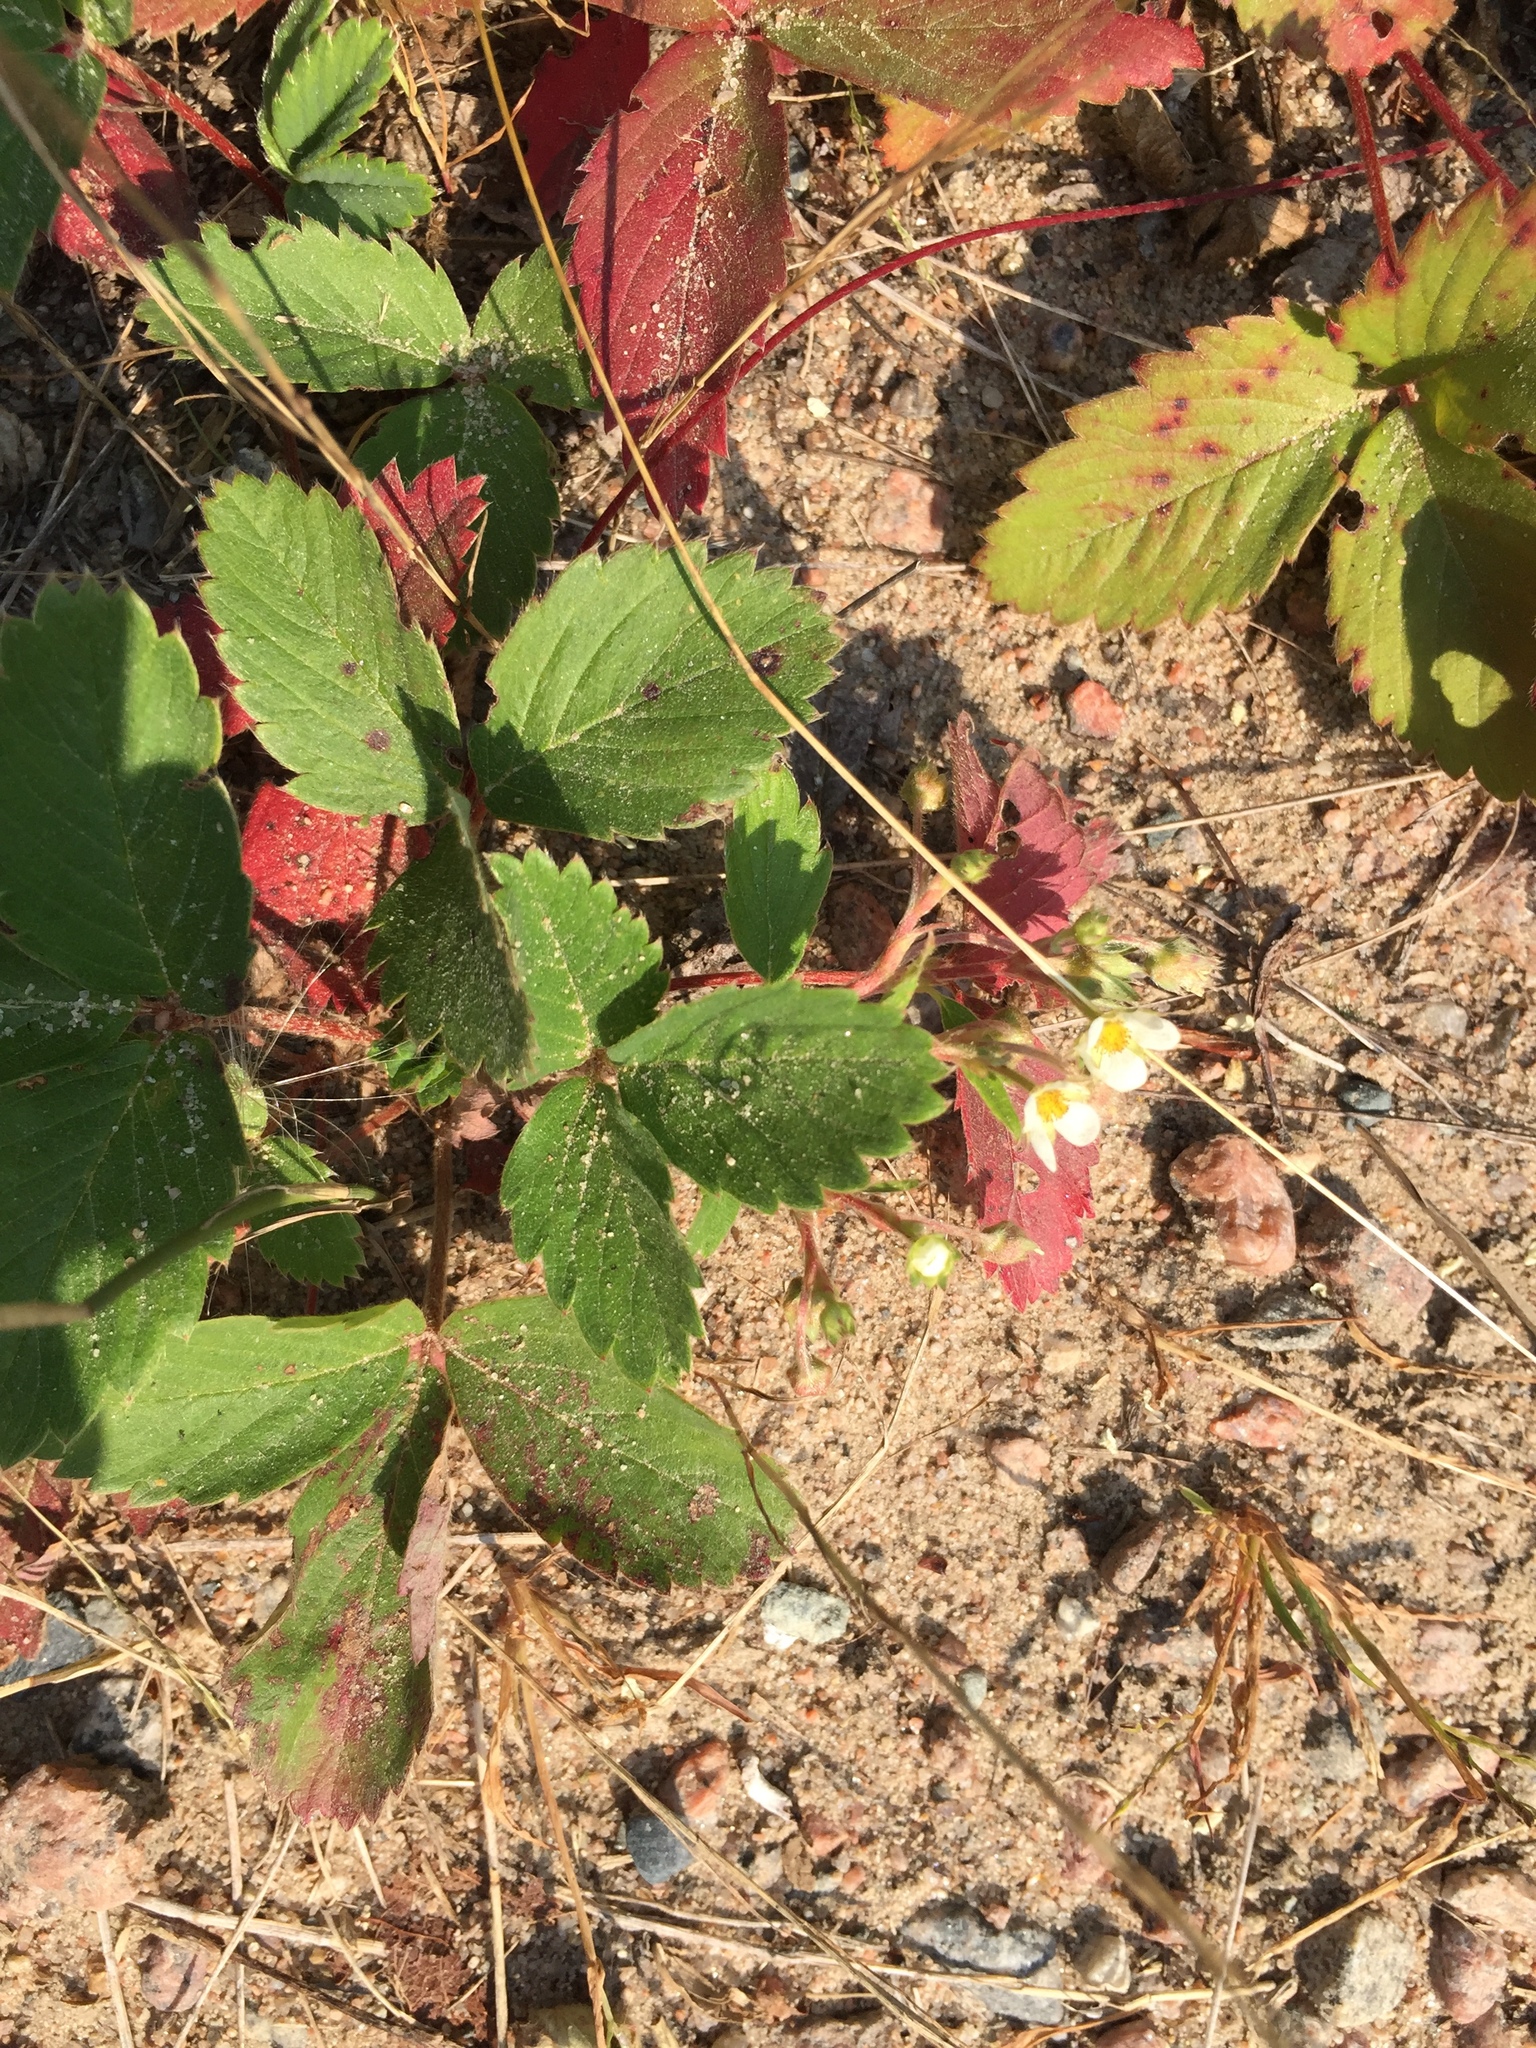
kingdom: Plantae
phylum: Tracheophyta
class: Magnoliopsida
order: Rosales
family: Rosaceae
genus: Fragaria
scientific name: Fragaria virginiana
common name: Thickleaved wild strawberry
